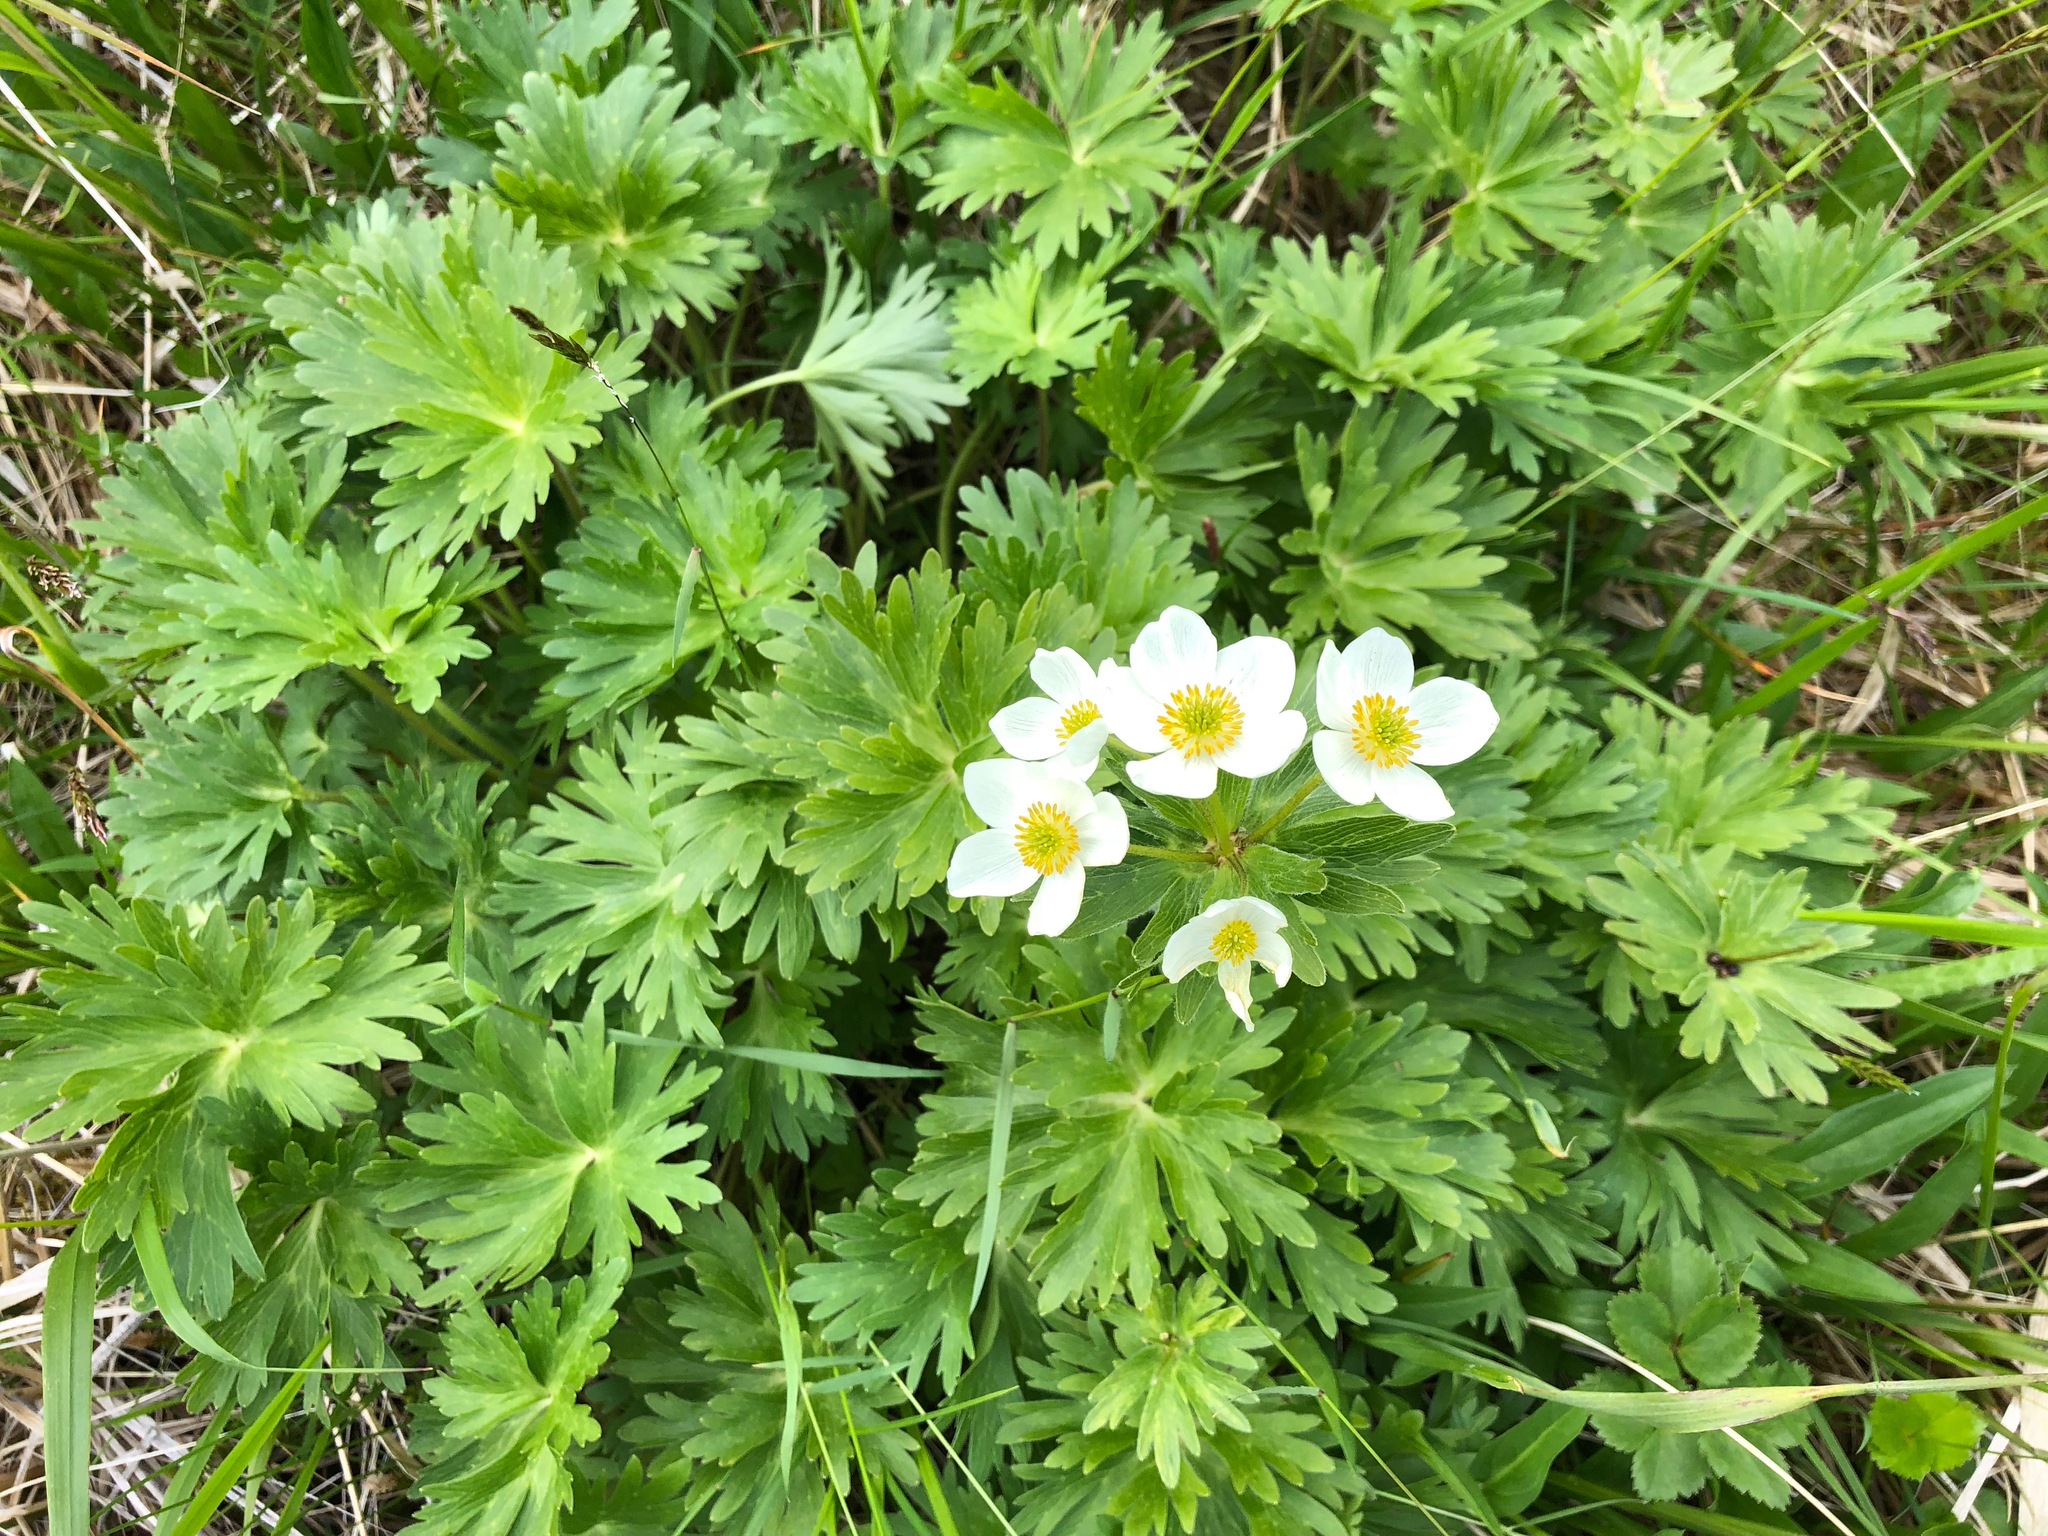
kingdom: Plantae
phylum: Tracheophyta
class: Magnoliopsida
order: Ranunculales
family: Ranunculaceae
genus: Anemonastrum
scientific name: Anemonastrum narcissiflorum
